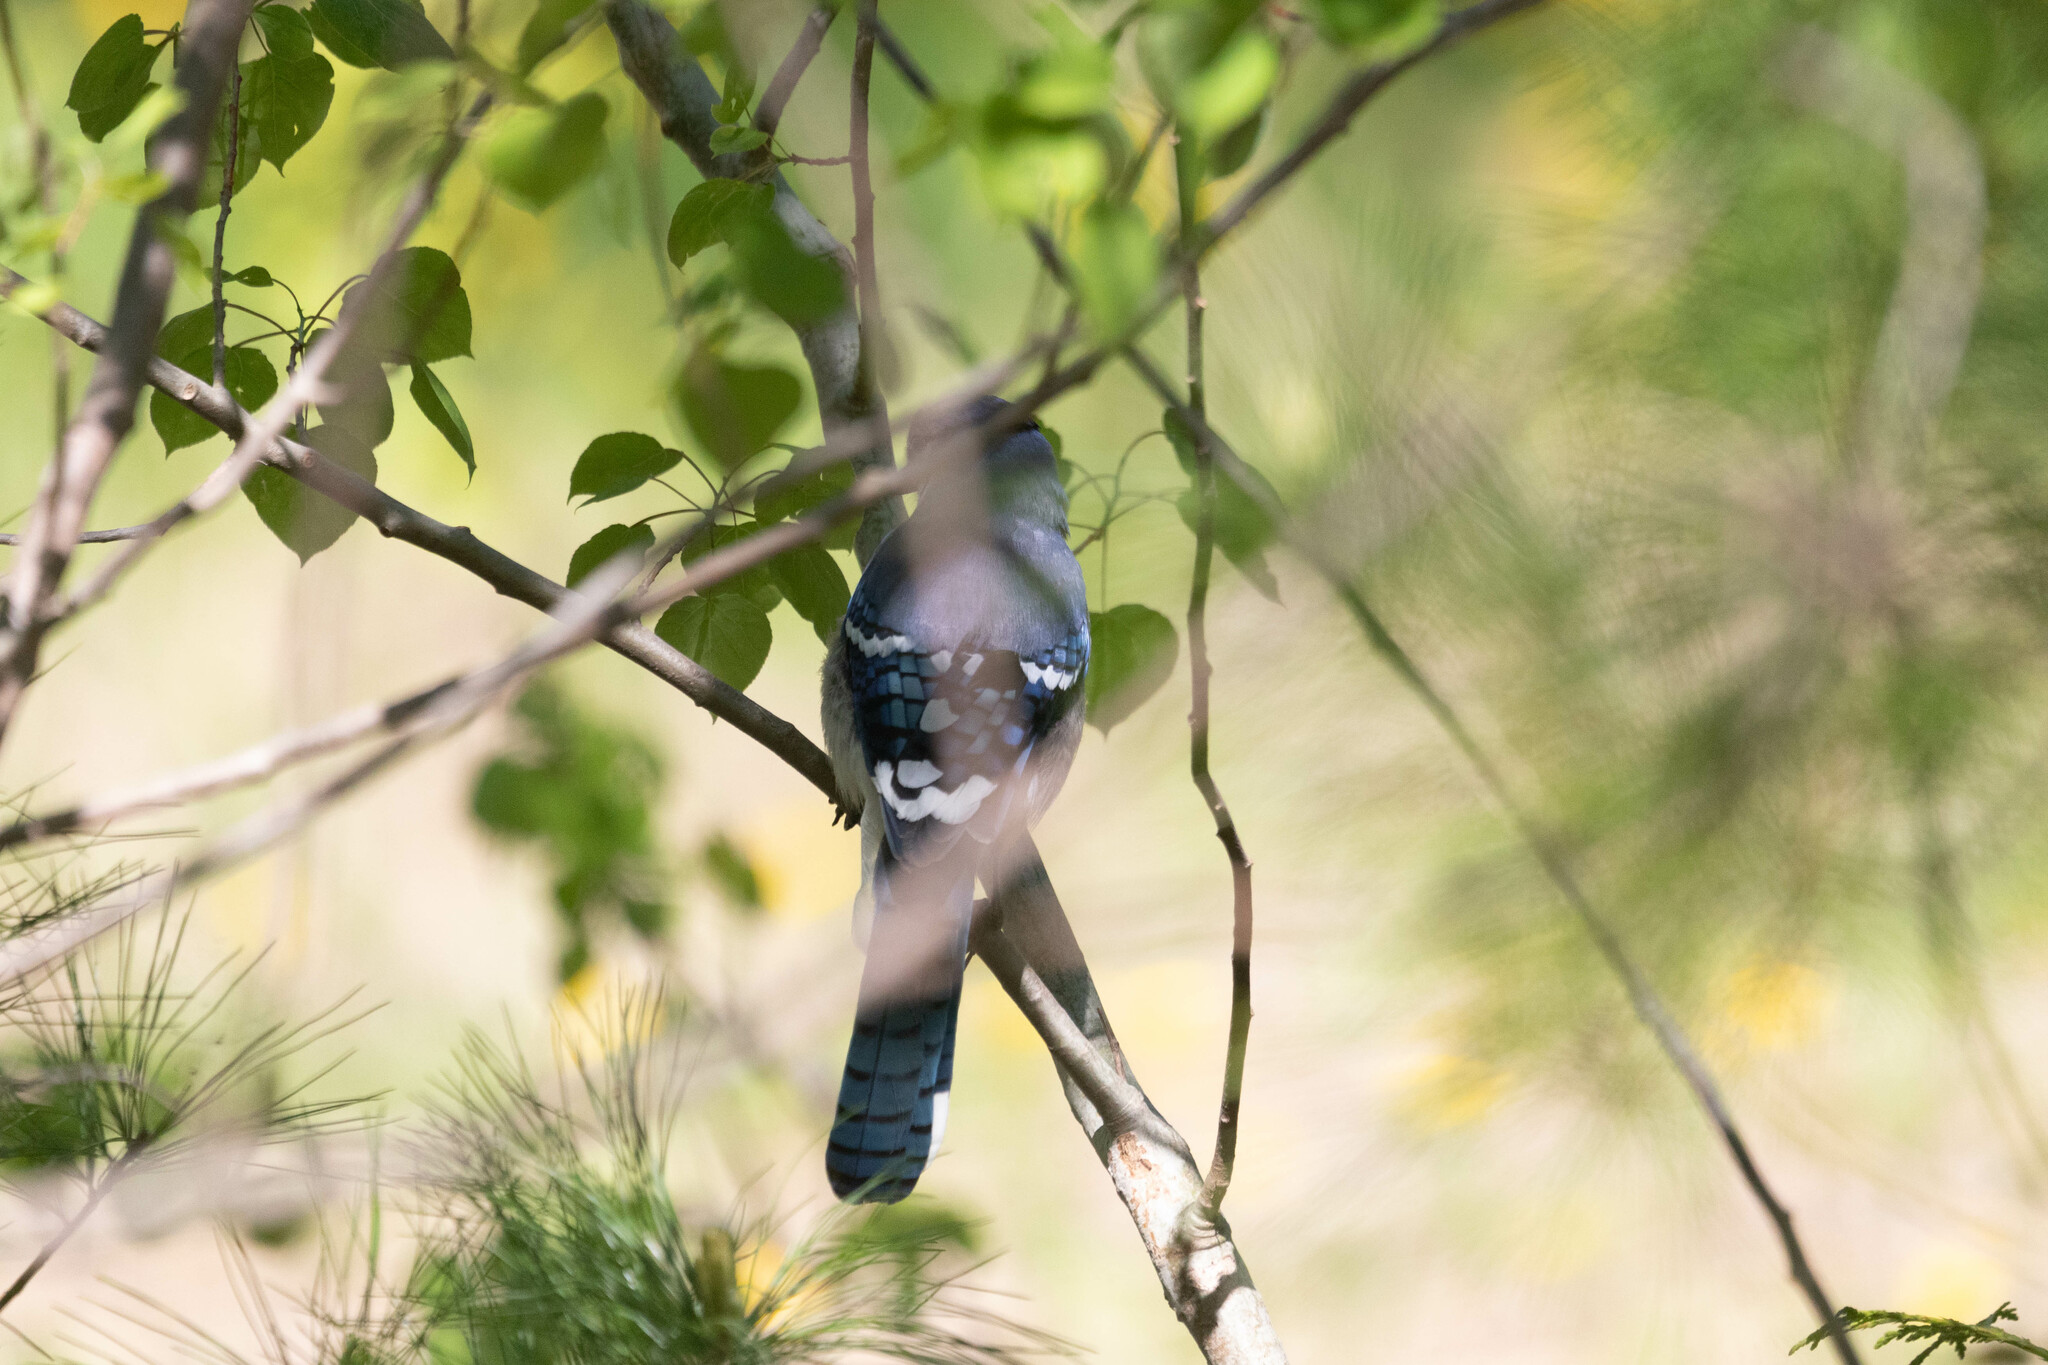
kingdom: Animalia
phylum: Chordata
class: Aves
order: Passeriformes
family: Corvidae
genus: Cyanocitta
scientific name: Cyanocitta cristata
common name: Blue jay
